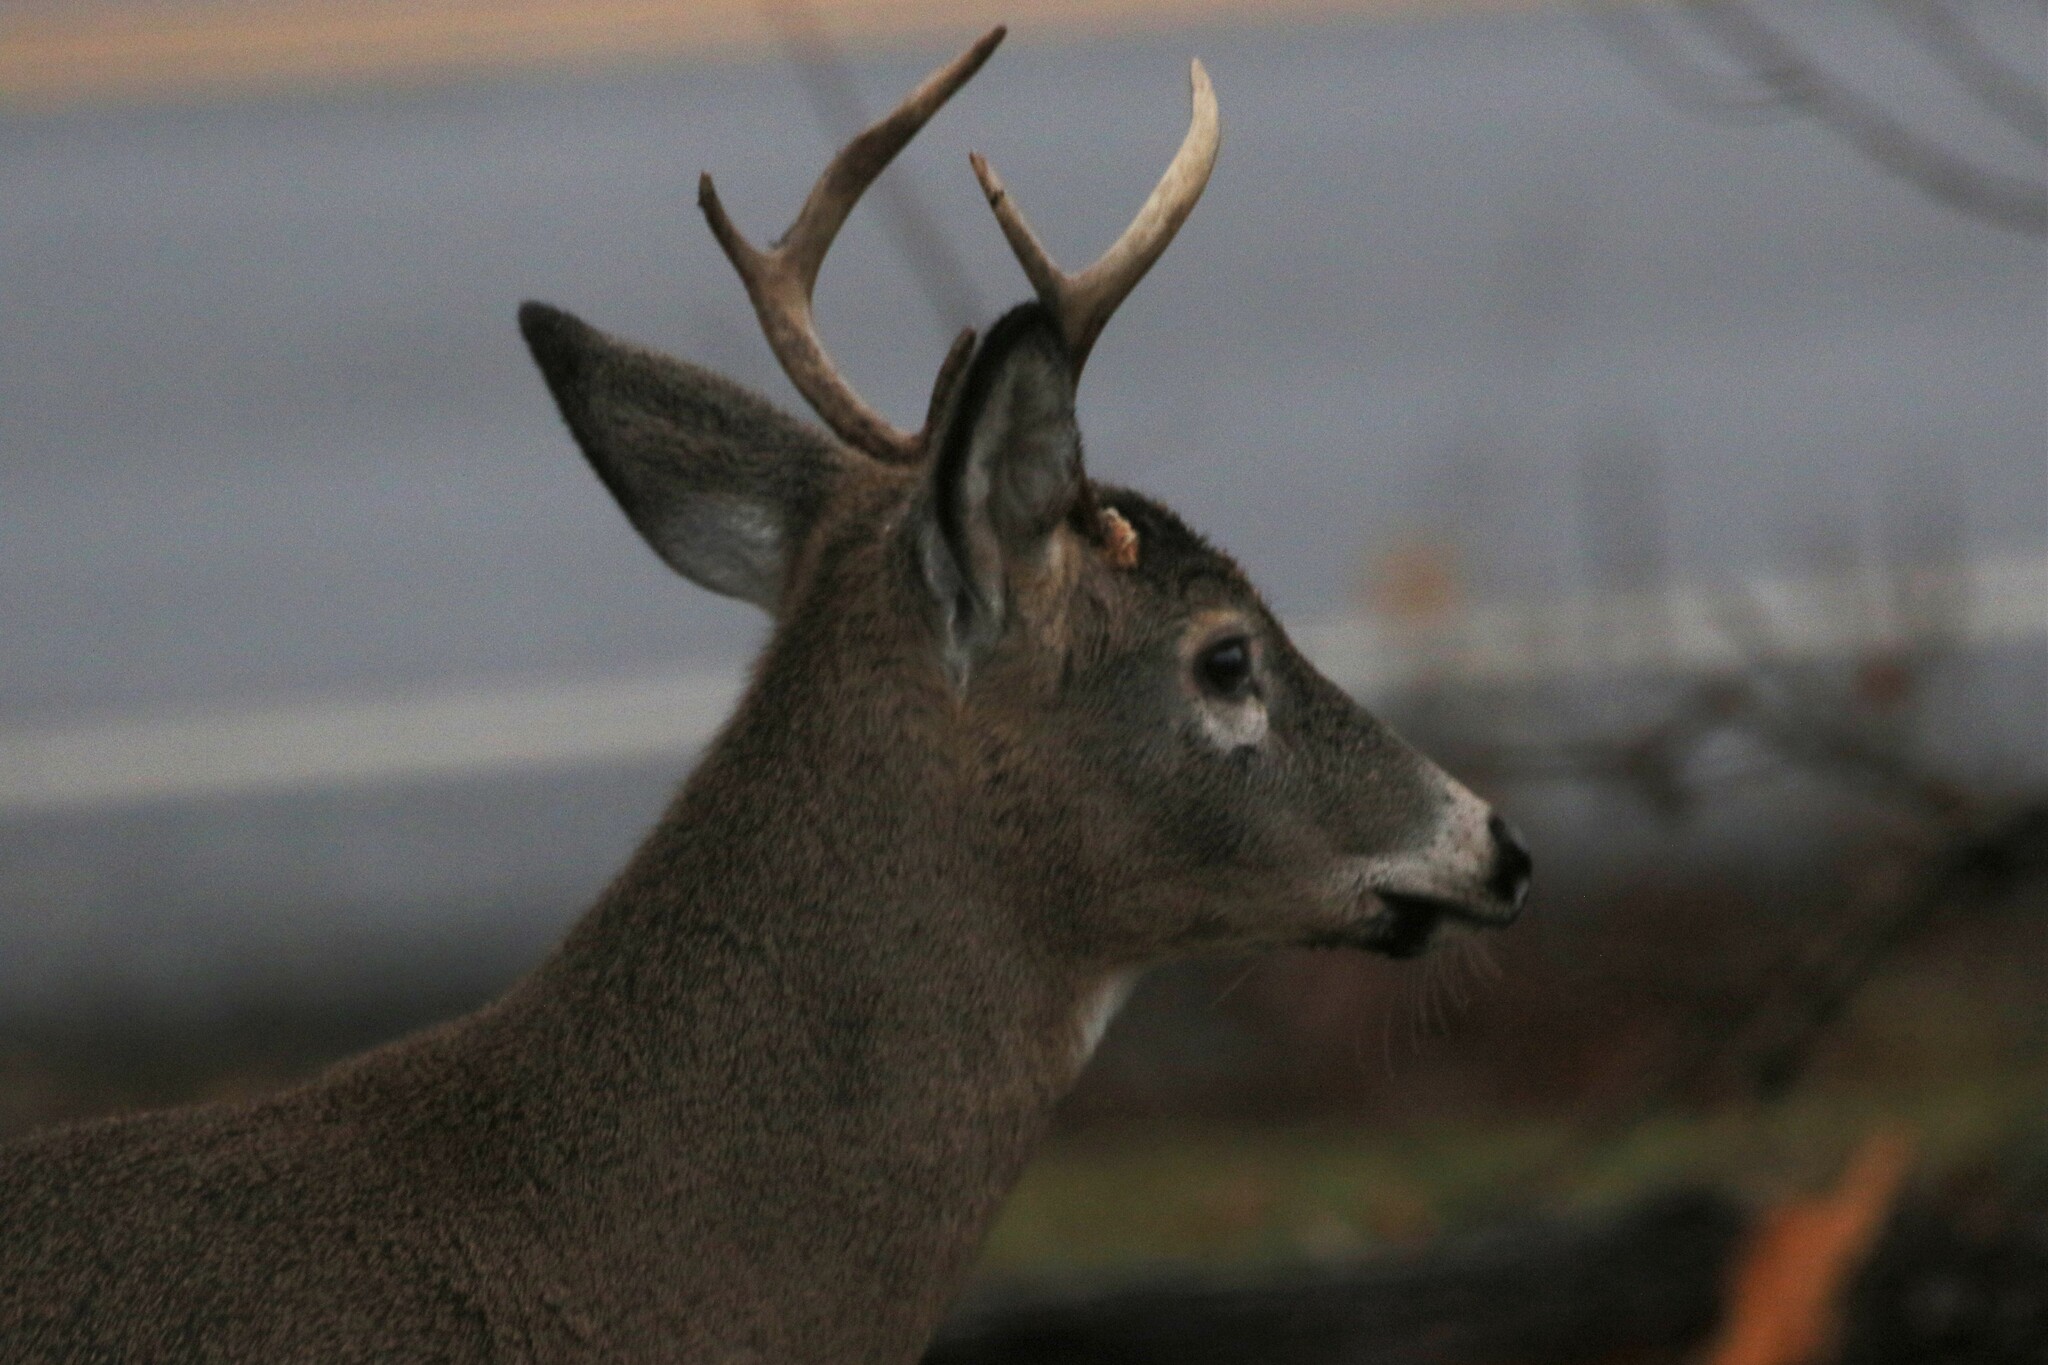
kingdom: Animalia
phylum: Chordata
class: Mammalia
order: Artiodactyla
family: Cervidae
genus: Odocoileus
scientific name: Odocoileus virginianus
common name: White-tailed deer
